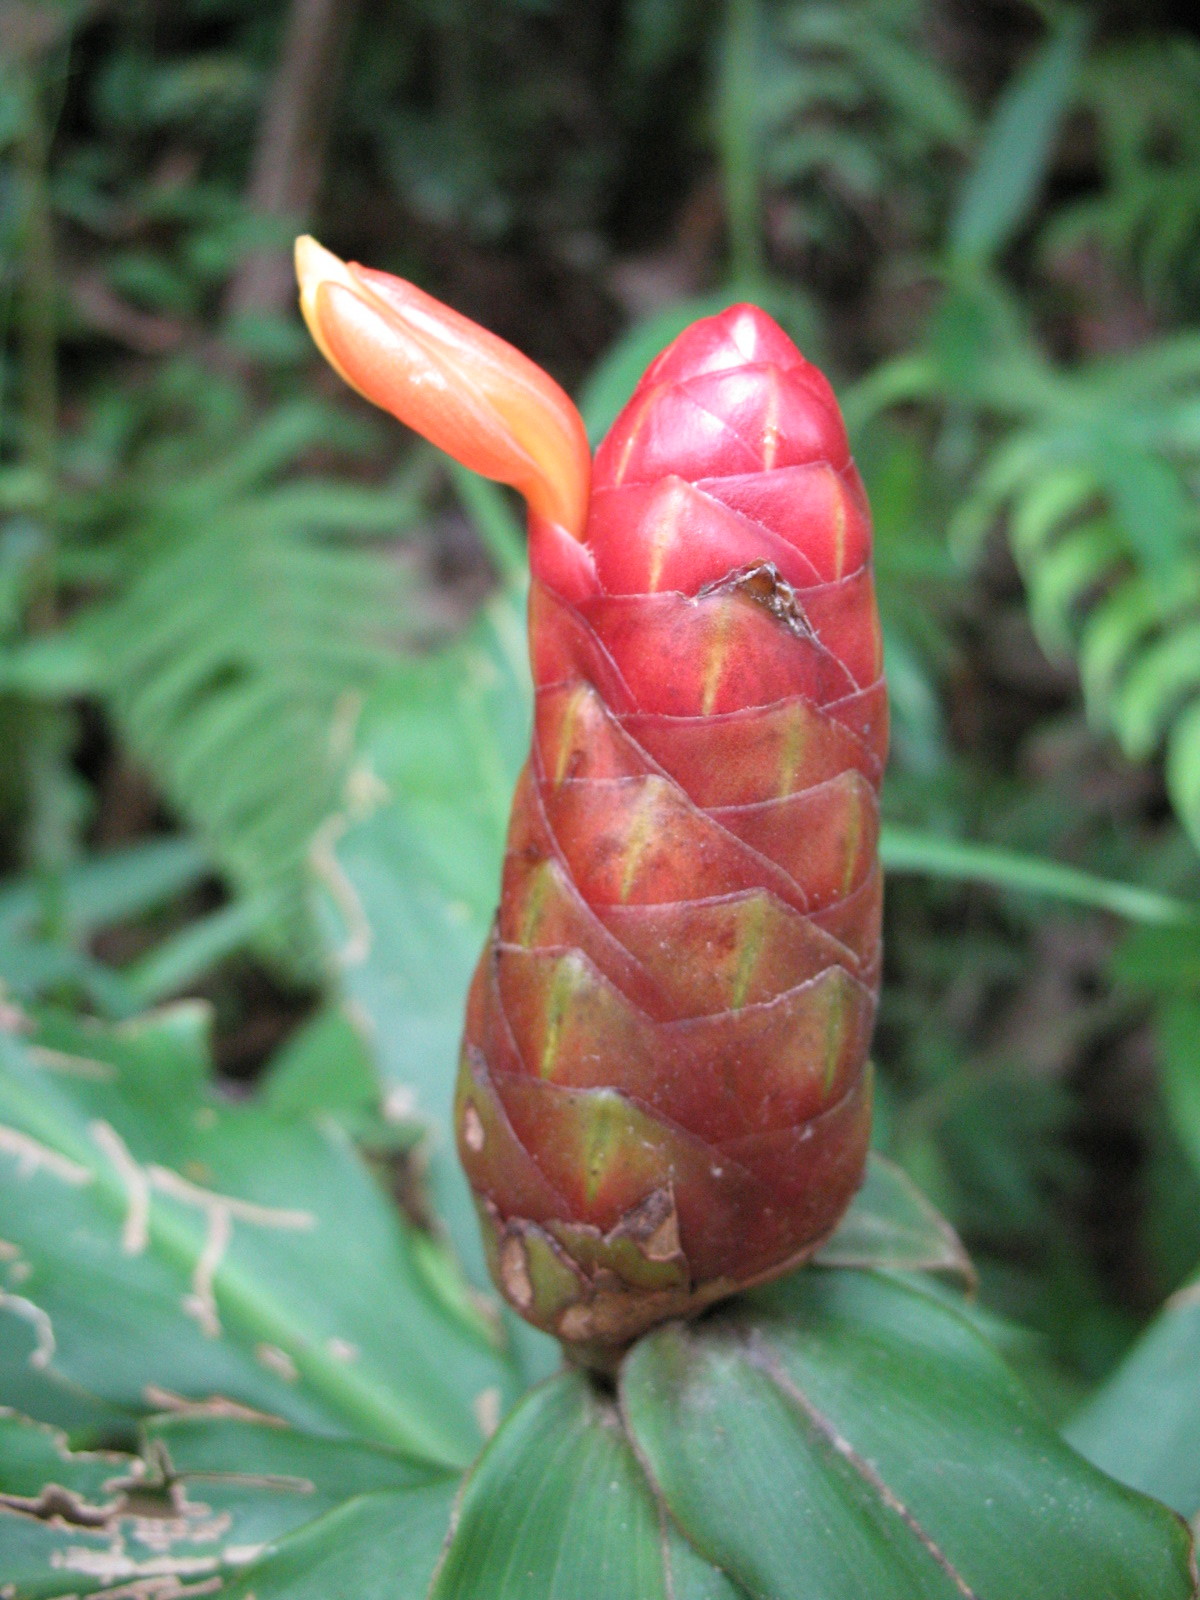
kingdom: Plantae
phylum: Tracheophyta
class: Liliopsida
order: Zingiberales
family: Costaceae
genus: Costus
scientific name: Costus scaber
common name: Spiral head ginger
